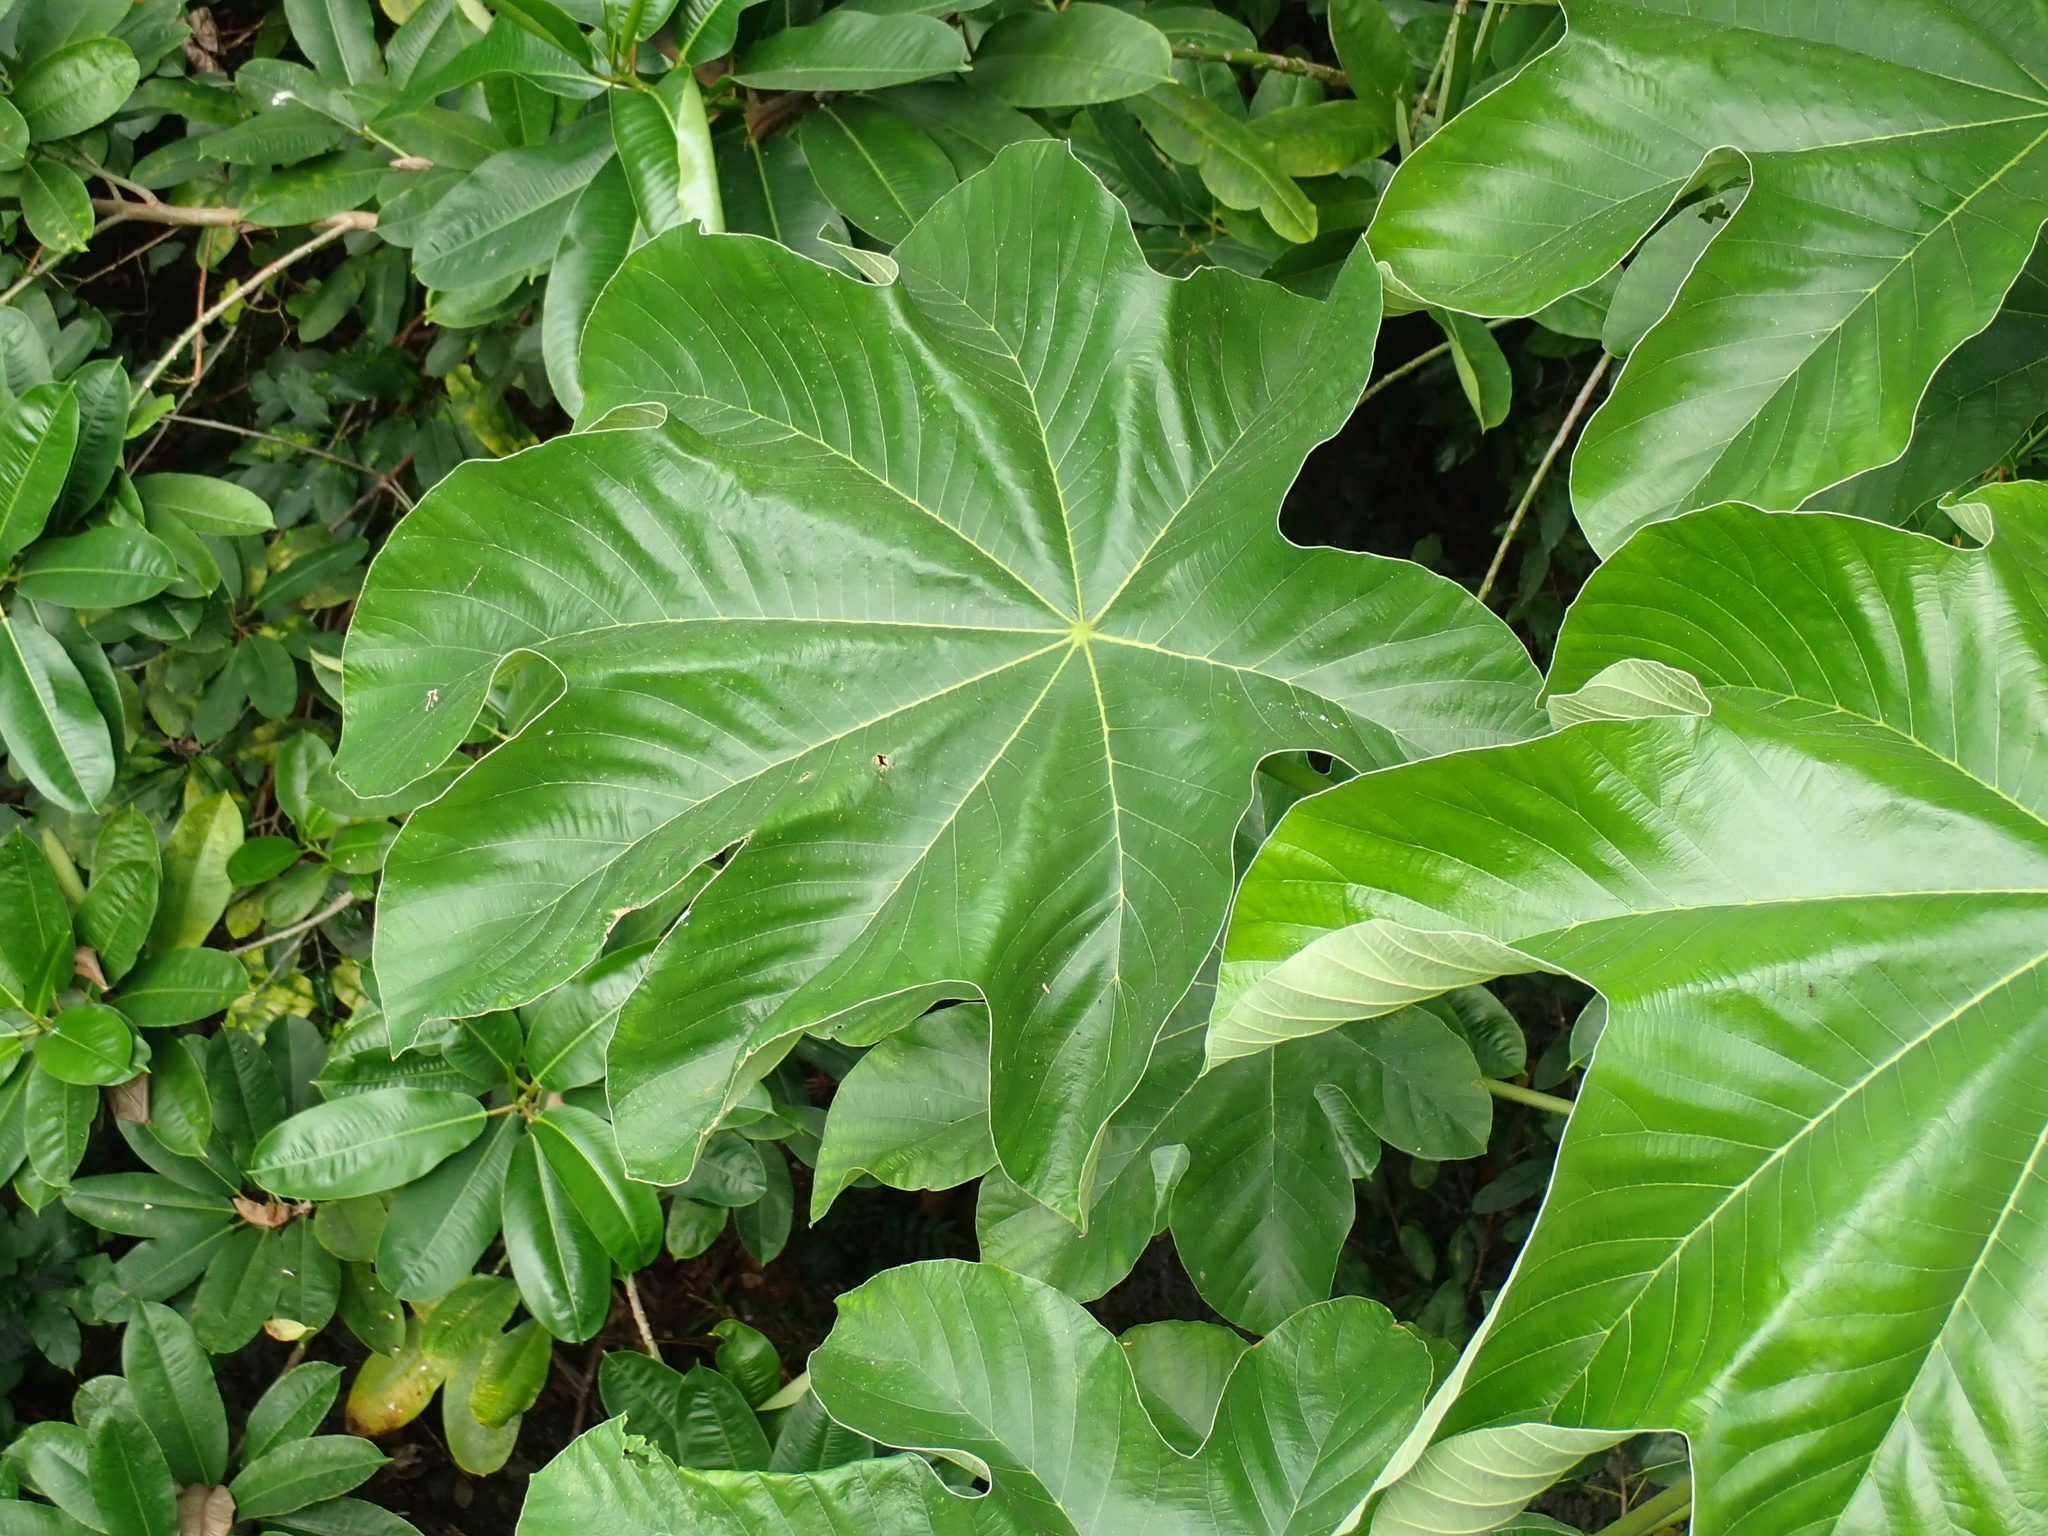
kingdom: Plantae
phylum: Tracheophyta
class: Magnoliopsida
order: Rosales
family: Urticaceae
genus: Cecropia
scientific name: Cecropia schreberiana
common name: Trumpet tree
